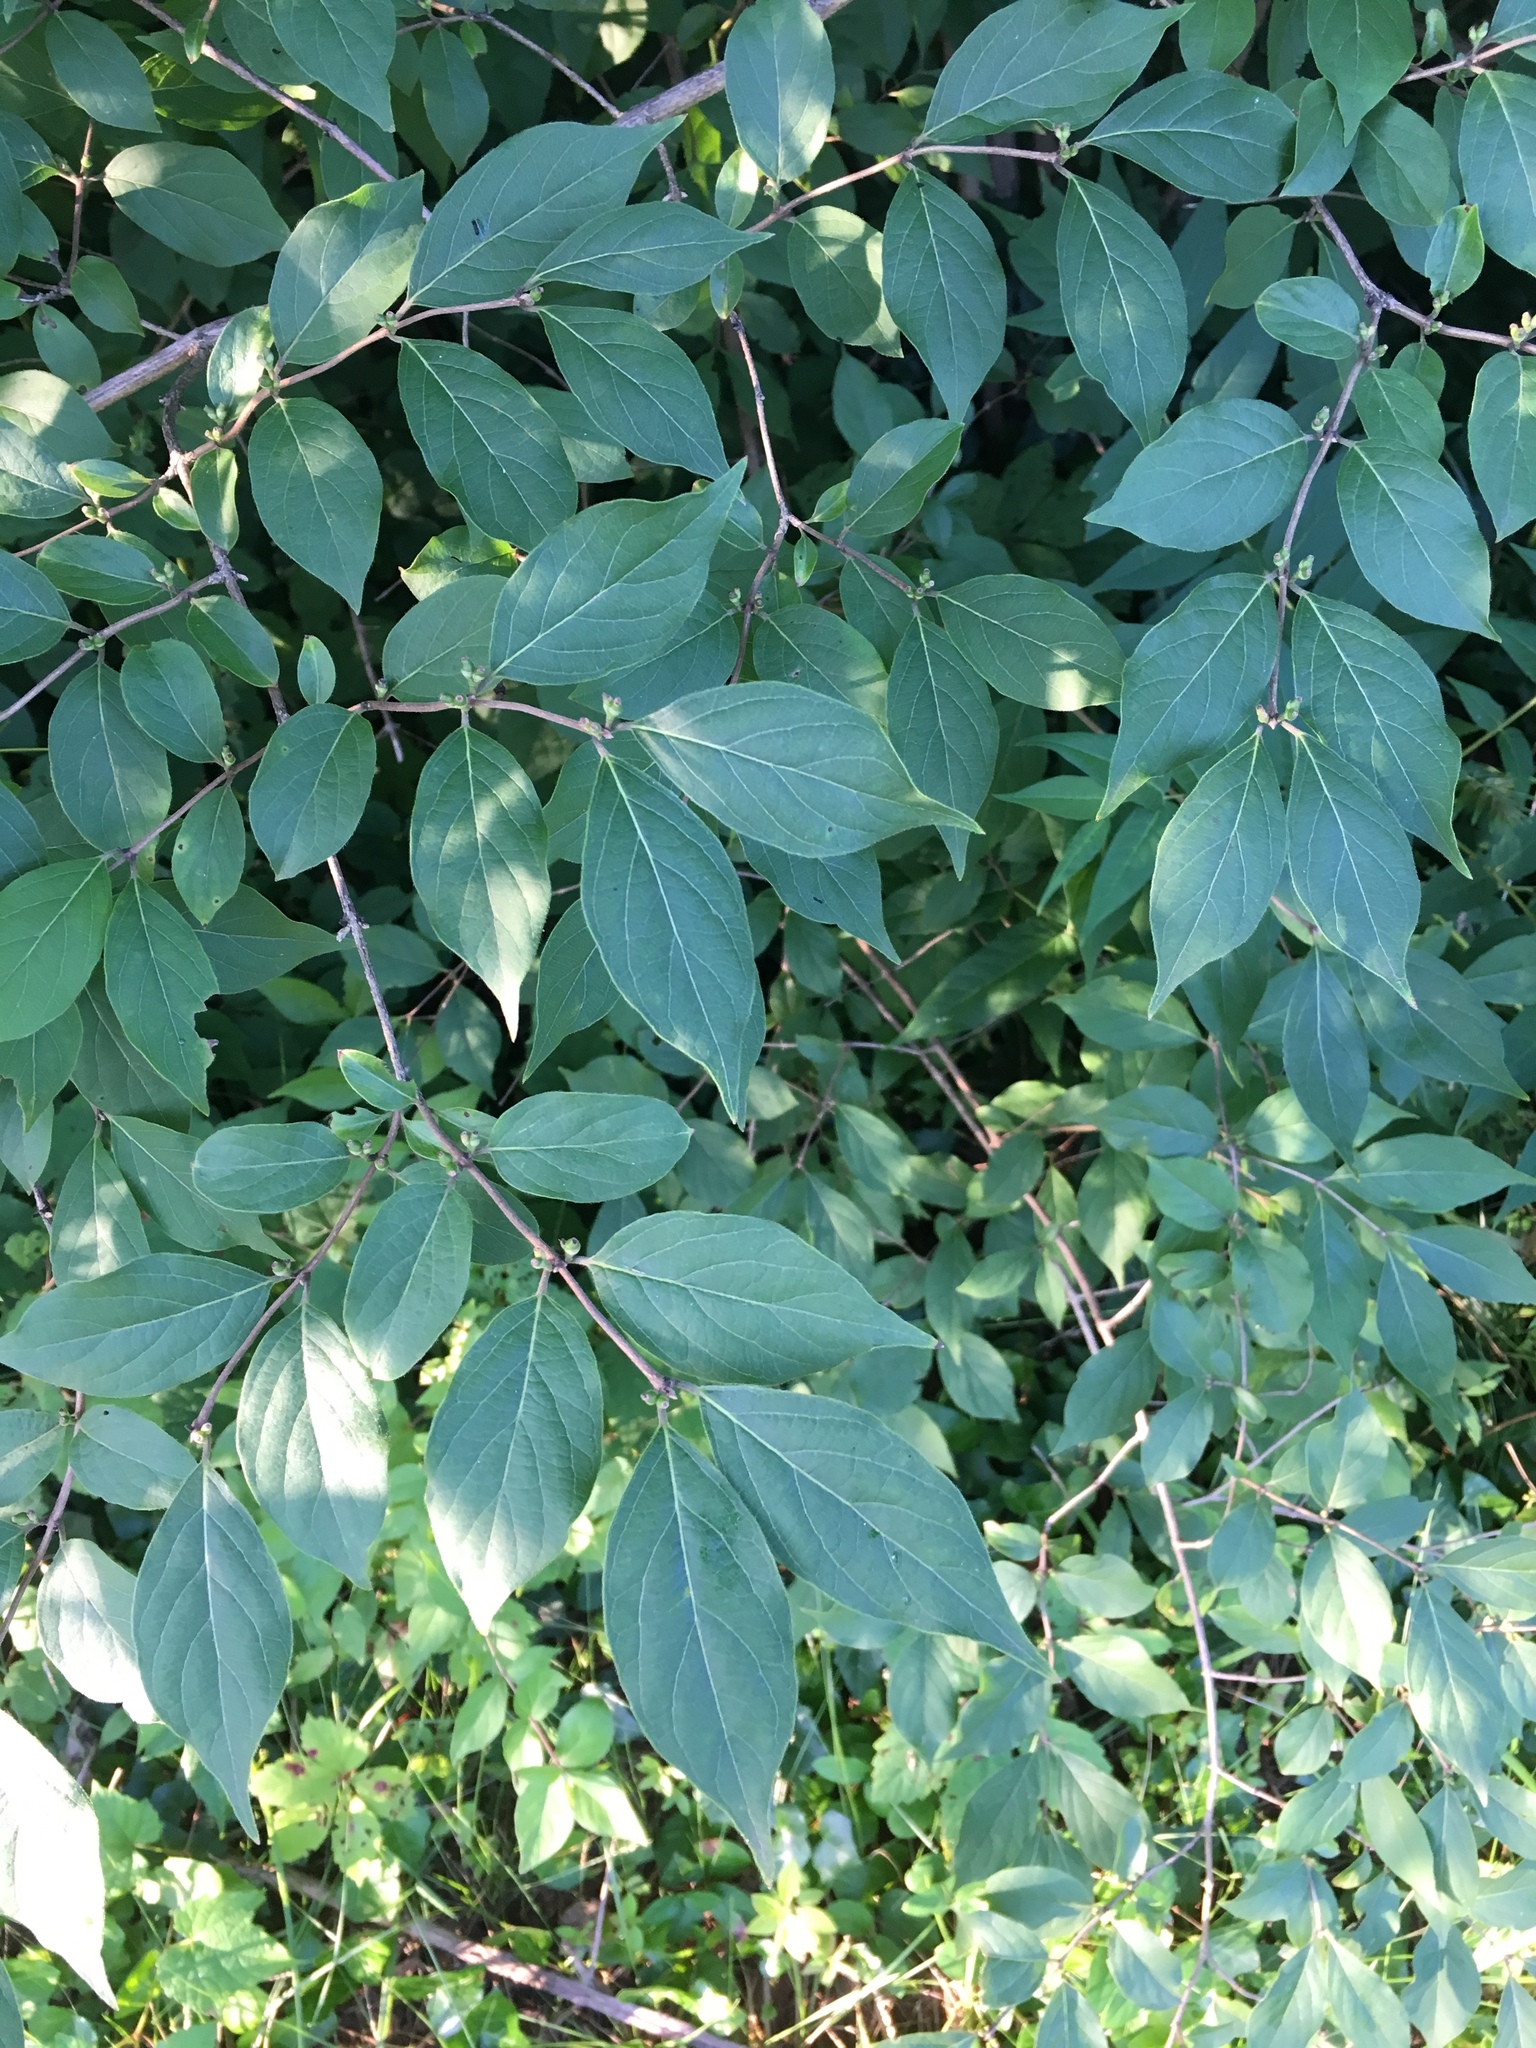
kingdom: Plantae
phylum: Tracheophyta
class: Magnoliopsida
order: Dipsacales
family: Caprifoliaceae
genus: Lonicera
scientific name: Lonicera maackii
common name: Amur honeysuckle
